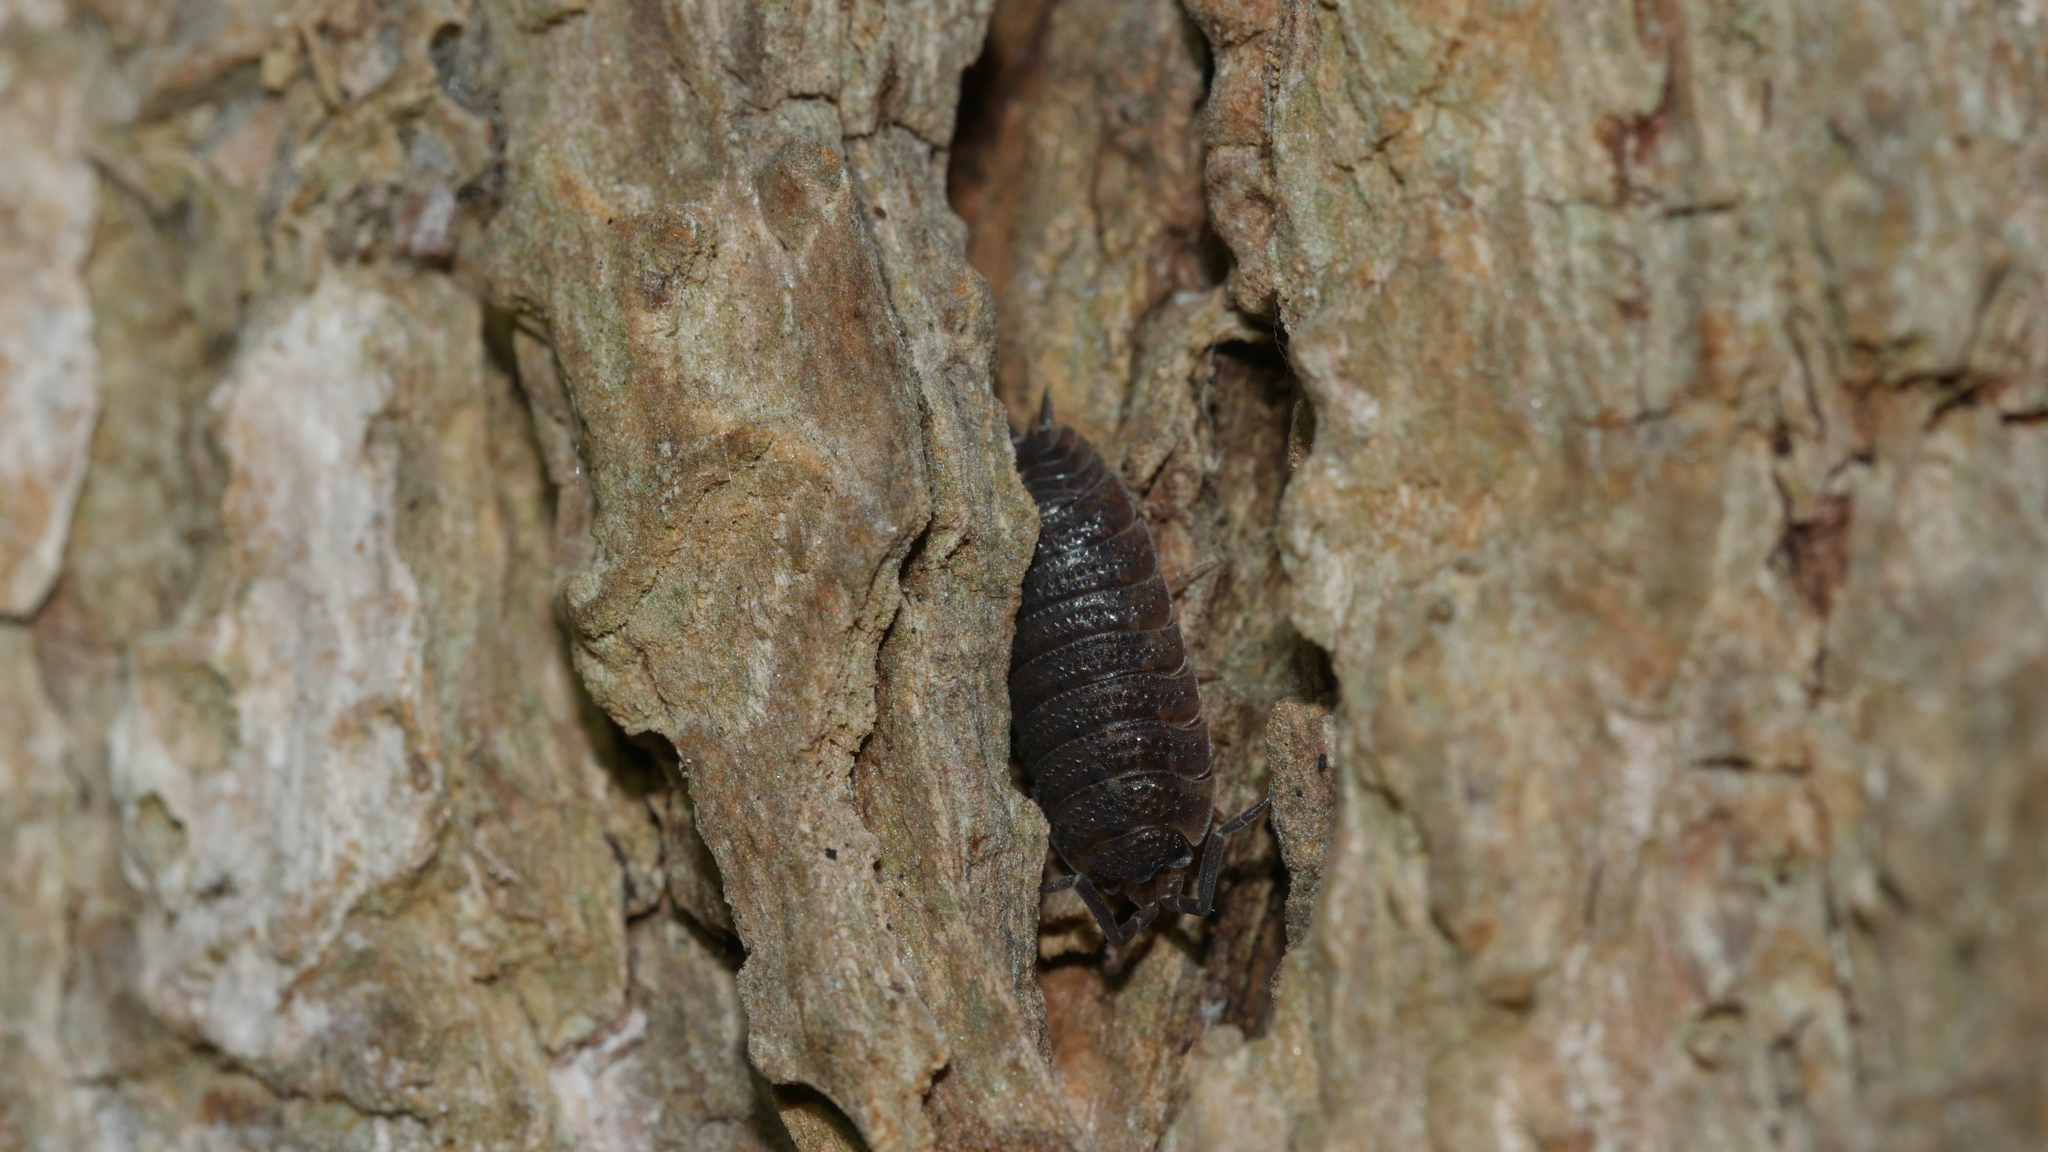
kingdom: Animalia
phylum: Arthropoda
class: Malacostraca
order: Isopoda
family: Porcellionidae
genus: Porcellio
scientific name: Porcellio scaber
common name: Common rough woodlouse
